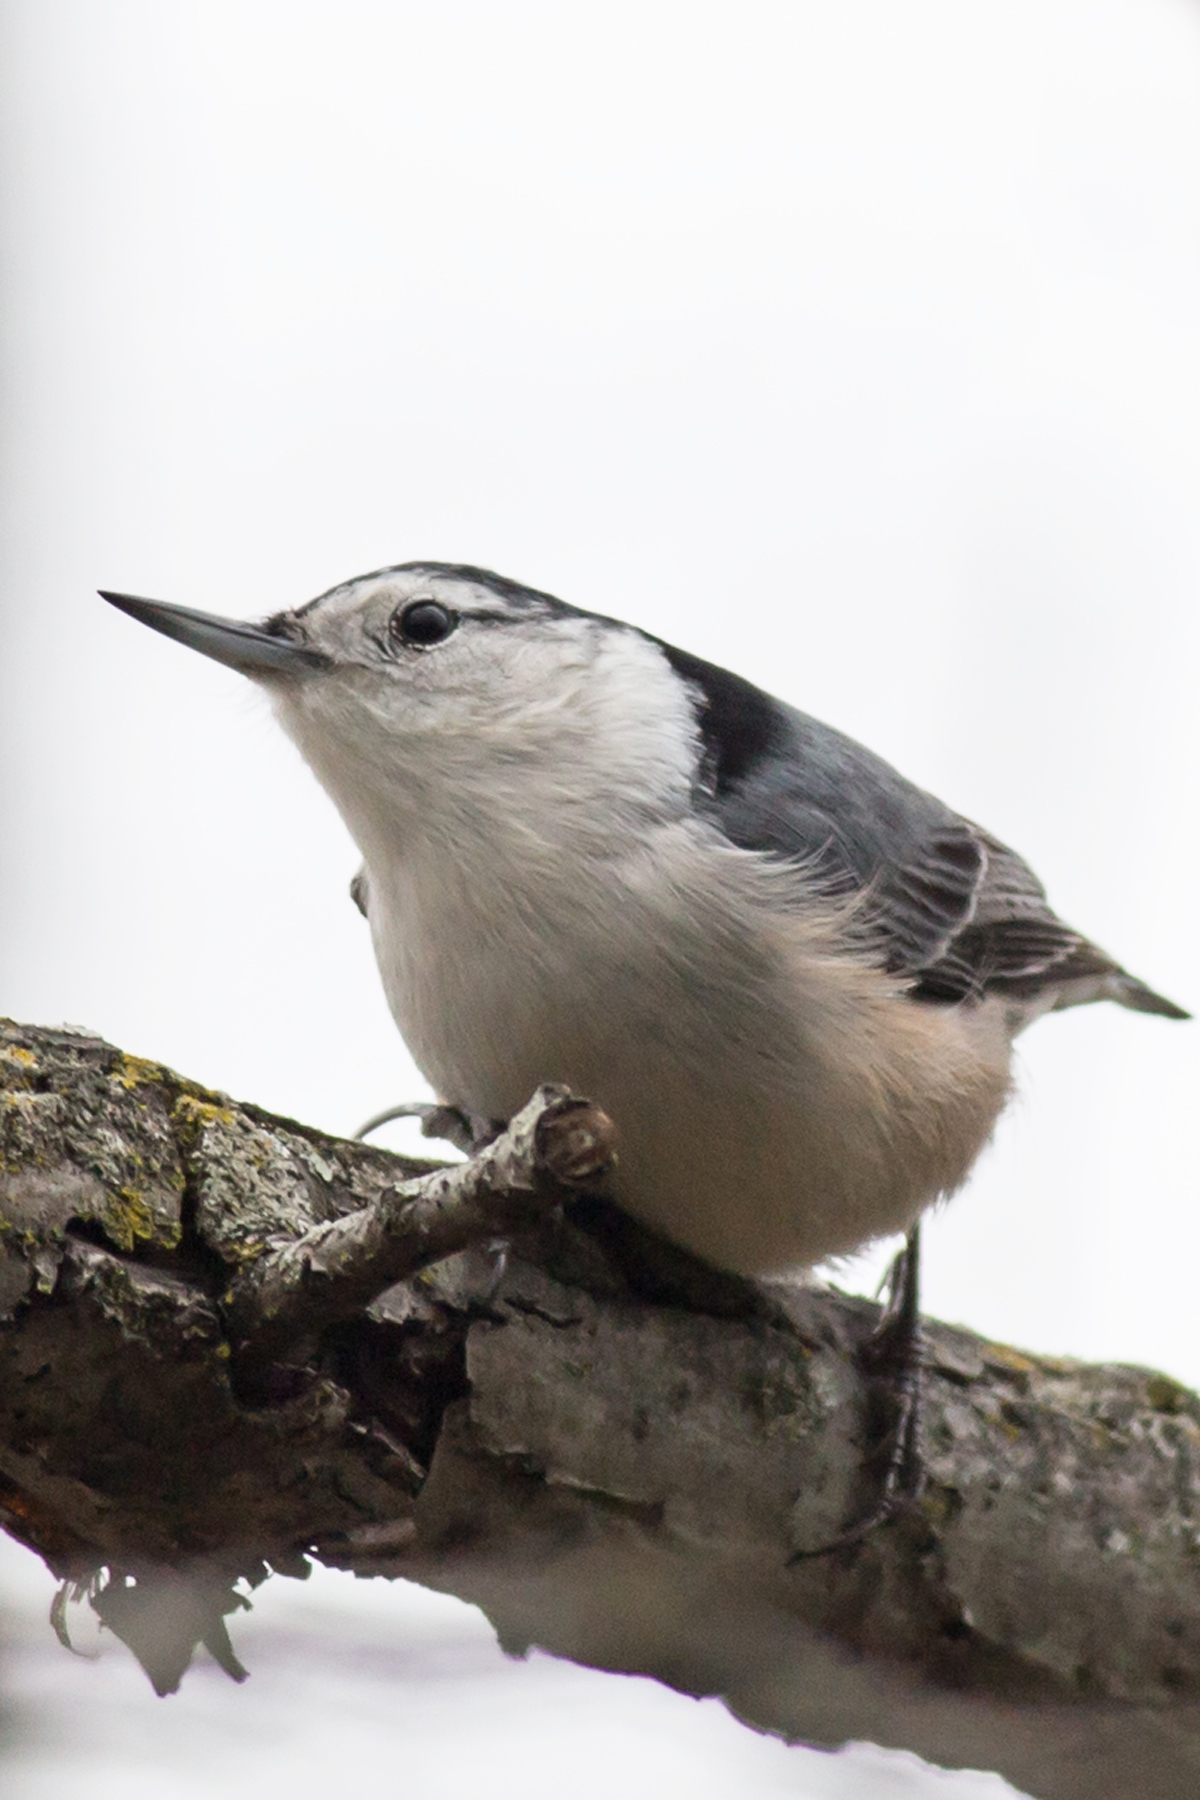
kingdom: Animalia
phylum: Chordata
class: Aves
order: Passeriformes
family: Sittidae
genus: Sitta
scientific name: Sitta carolinensis
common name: White-breasted nuthatch
